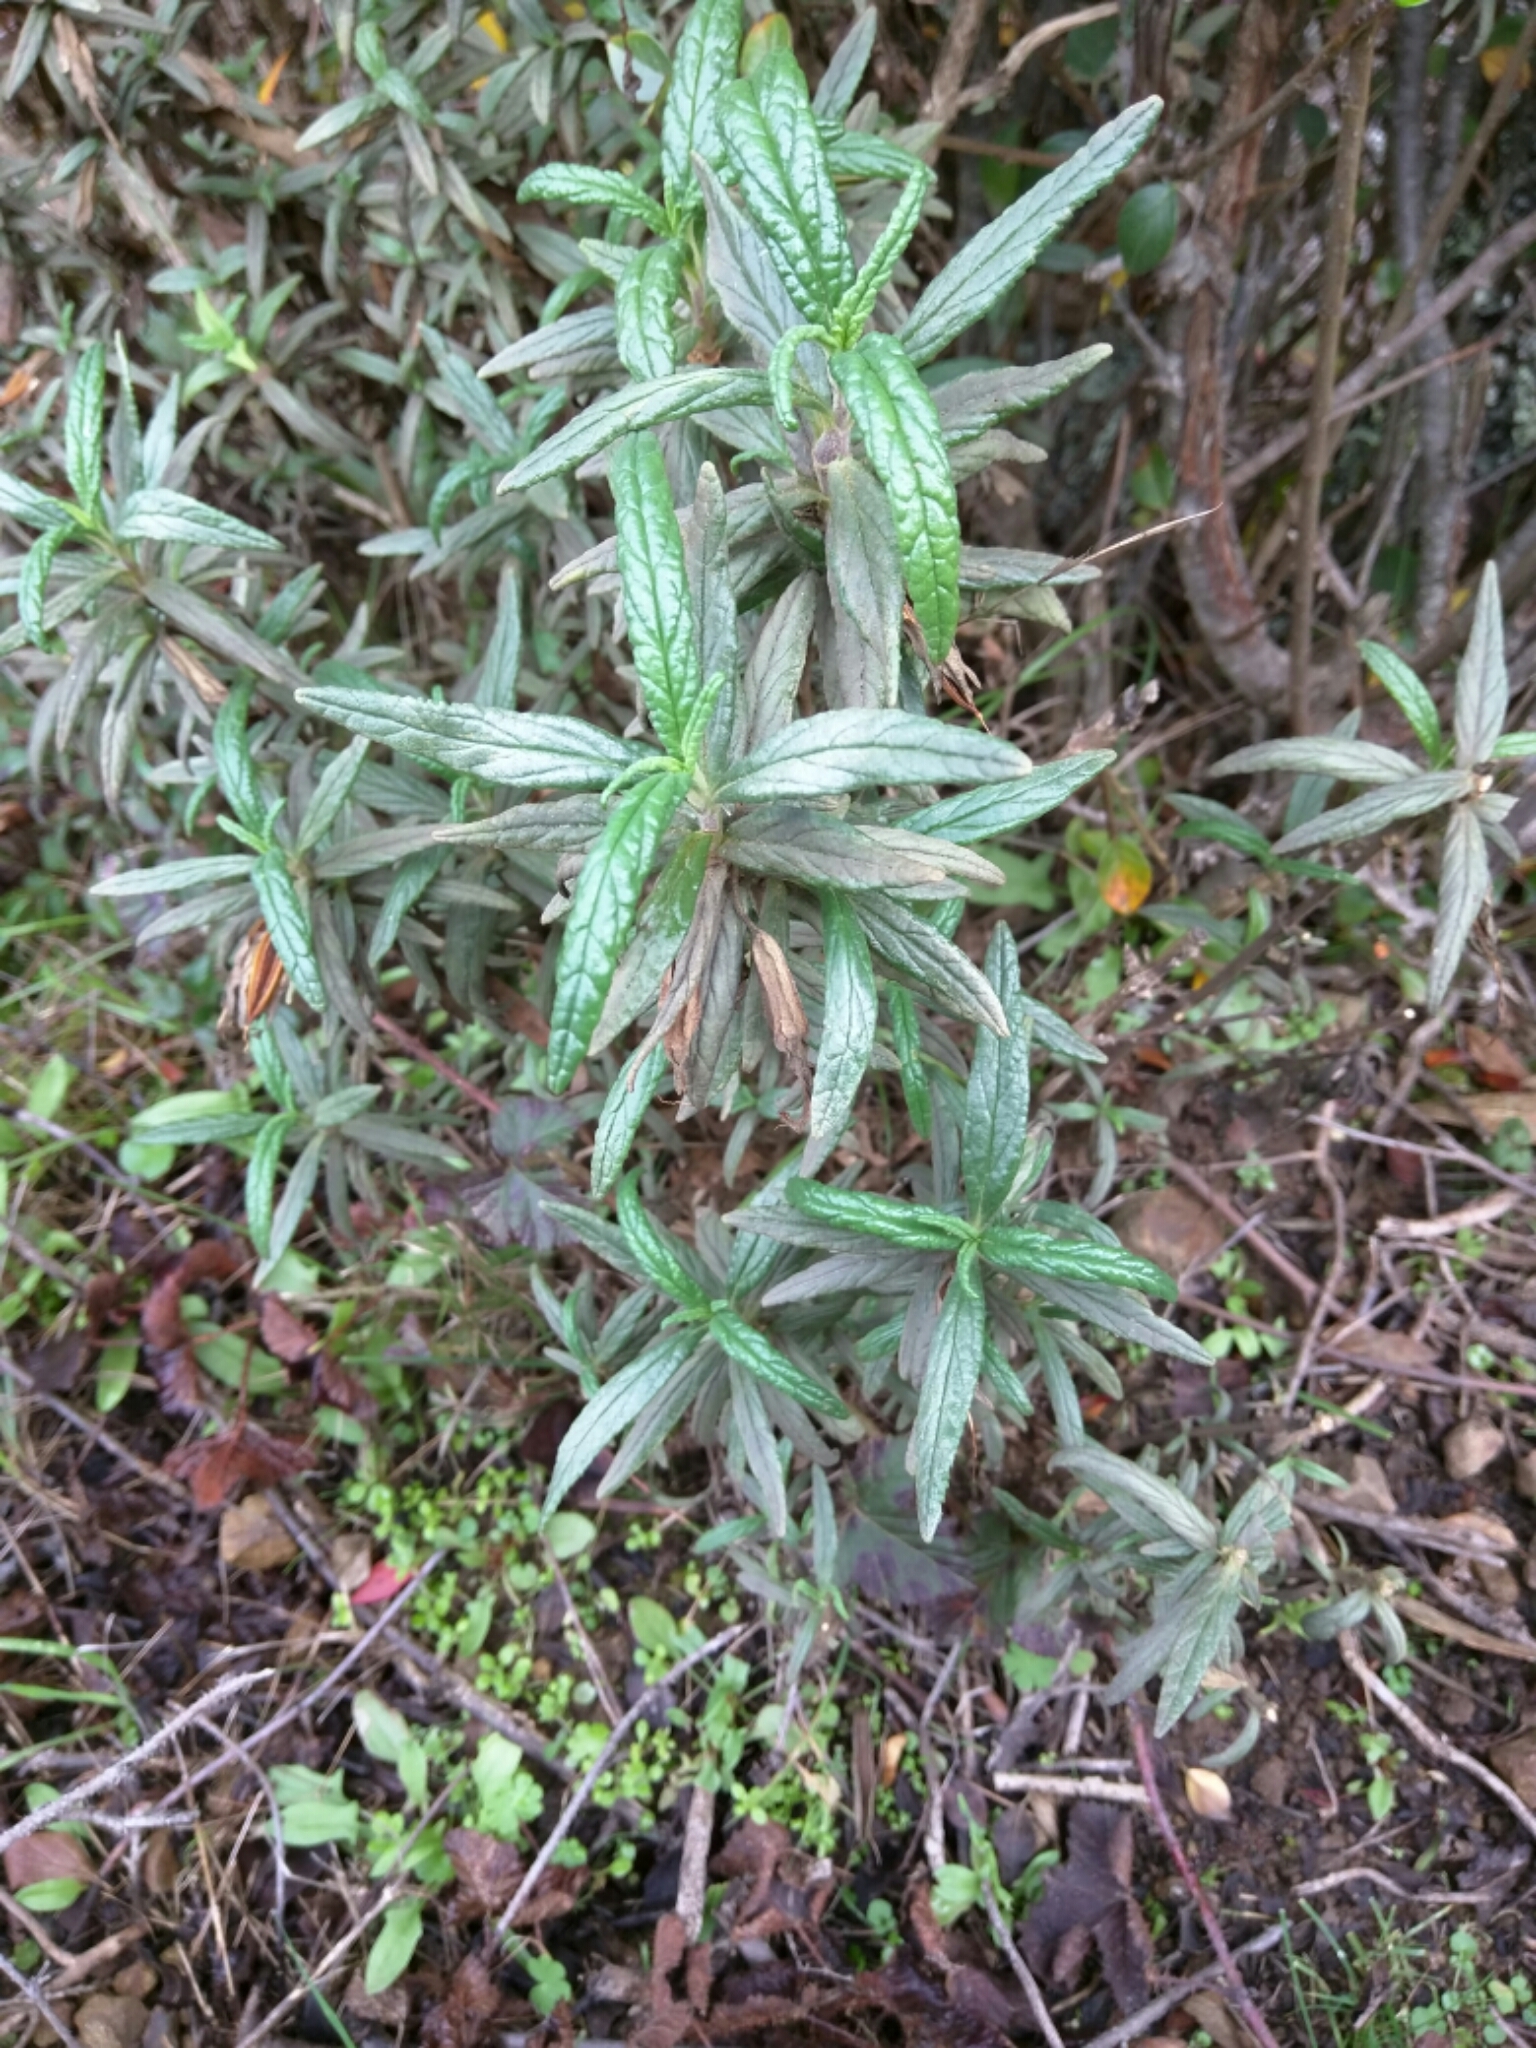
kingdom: Plantae
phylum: Tracheophyta
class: Magnoliopsida
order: Lamiales
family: Phrymaceae
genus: Diplacus
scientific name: Diplacus aurantiacus
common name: Bush monkey-flower
